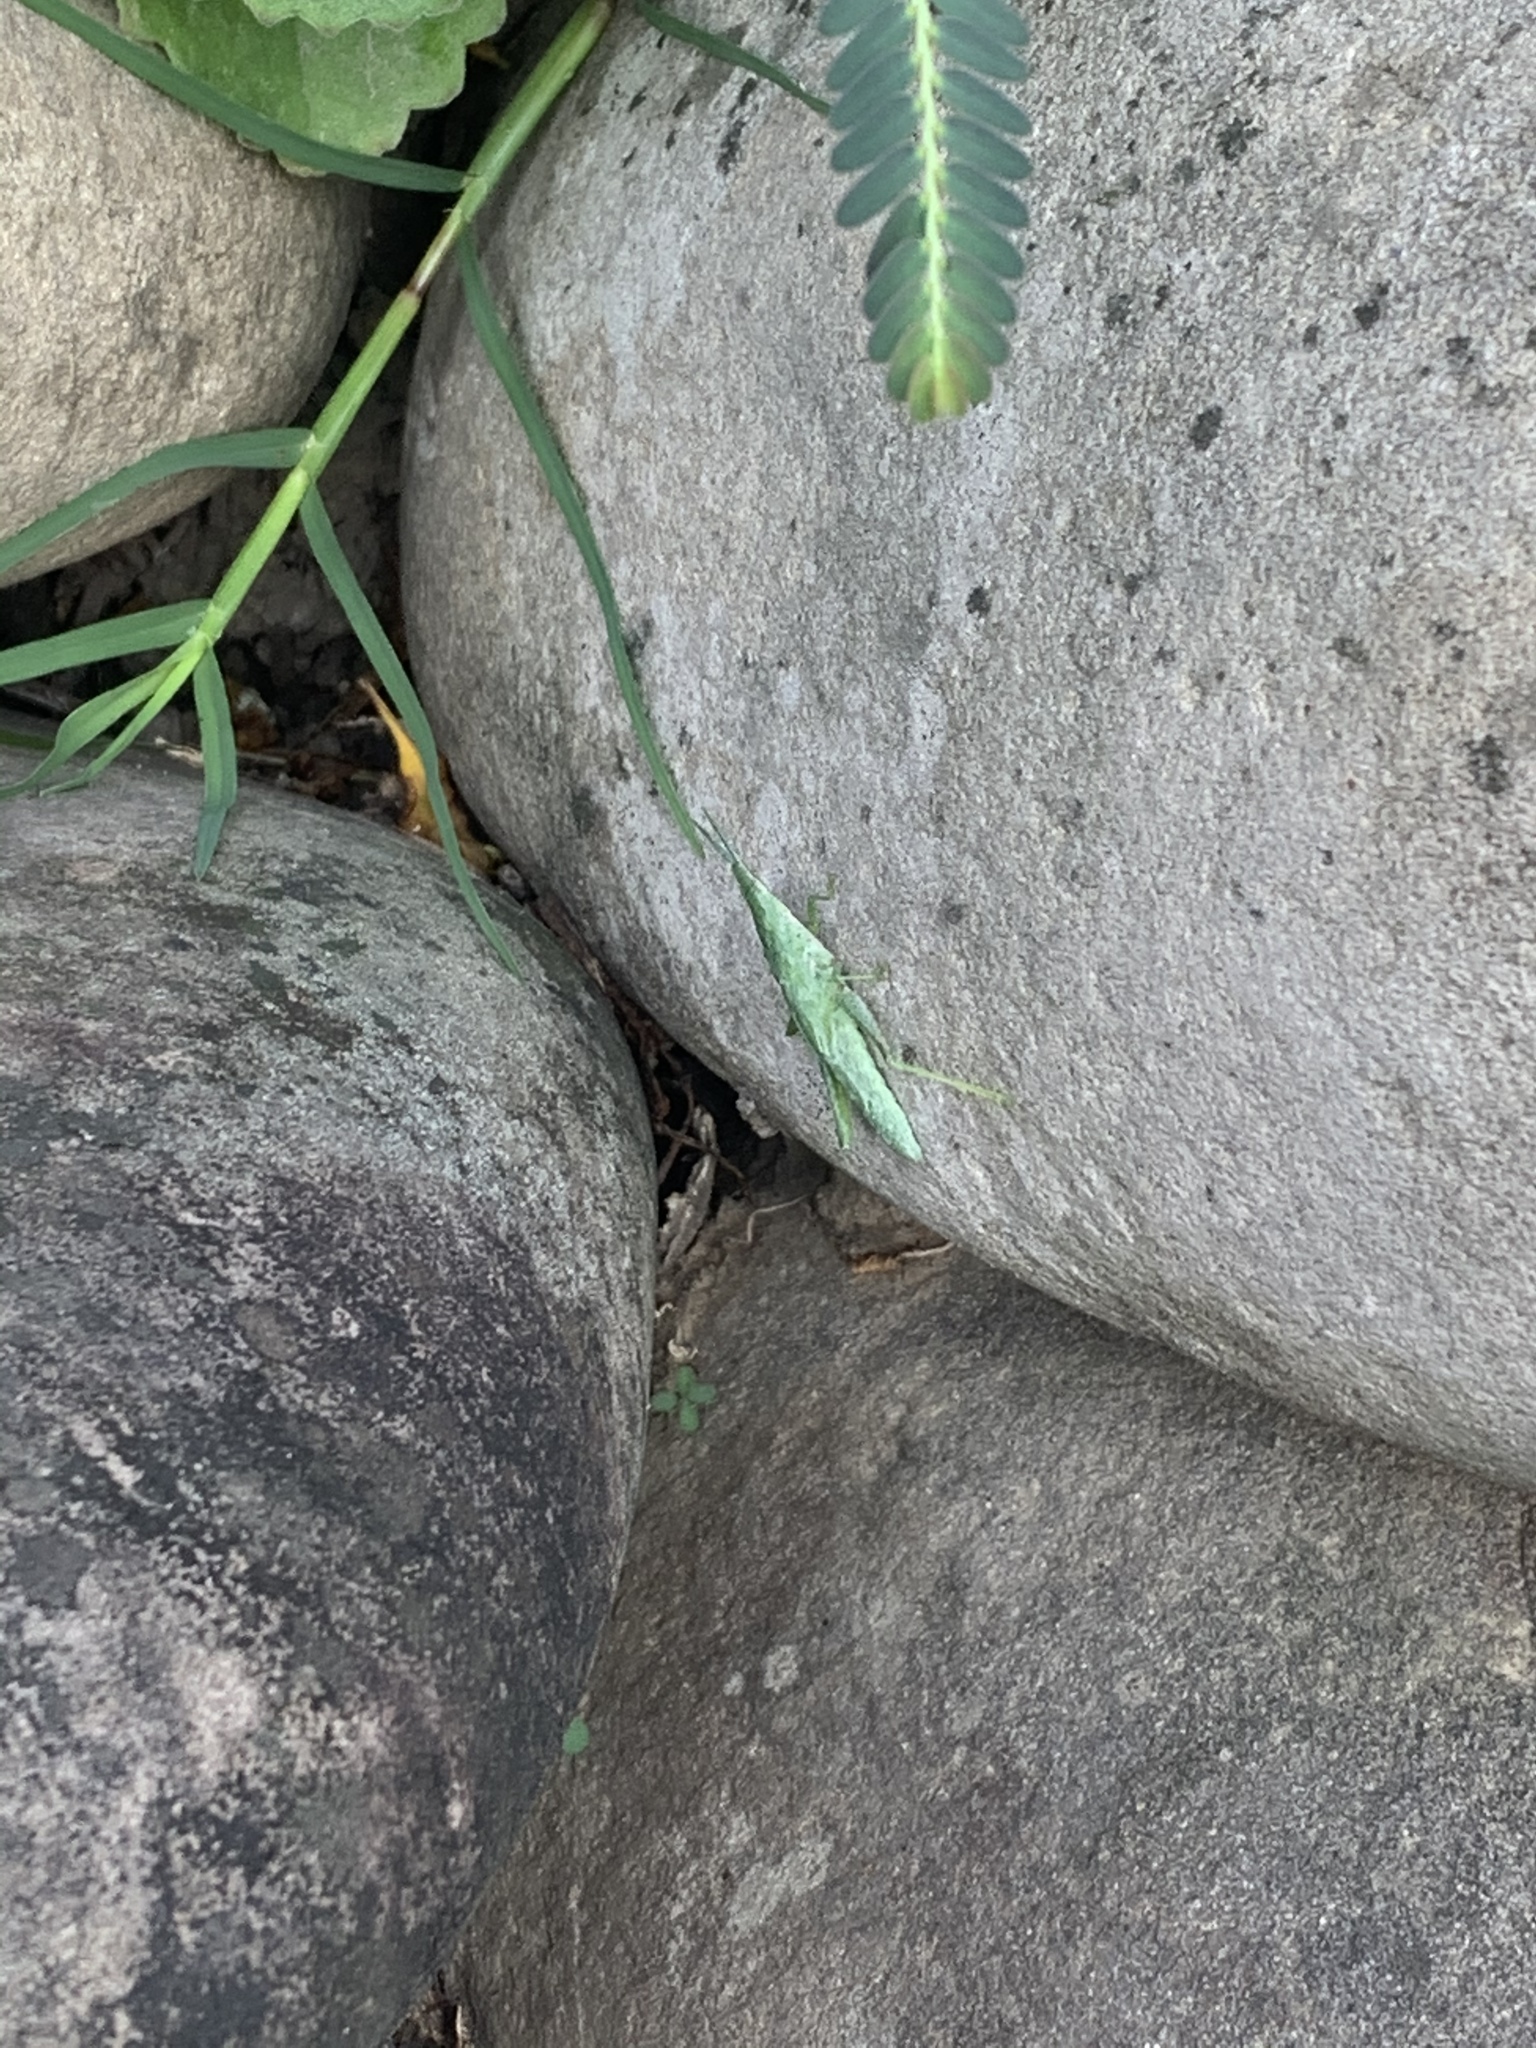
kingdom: Animalia
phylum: Arthropoda
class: Insecta
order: Orthoptera
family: Pyrgomorphidae
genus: Atractomorpha
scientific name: Atractomorpha lata
